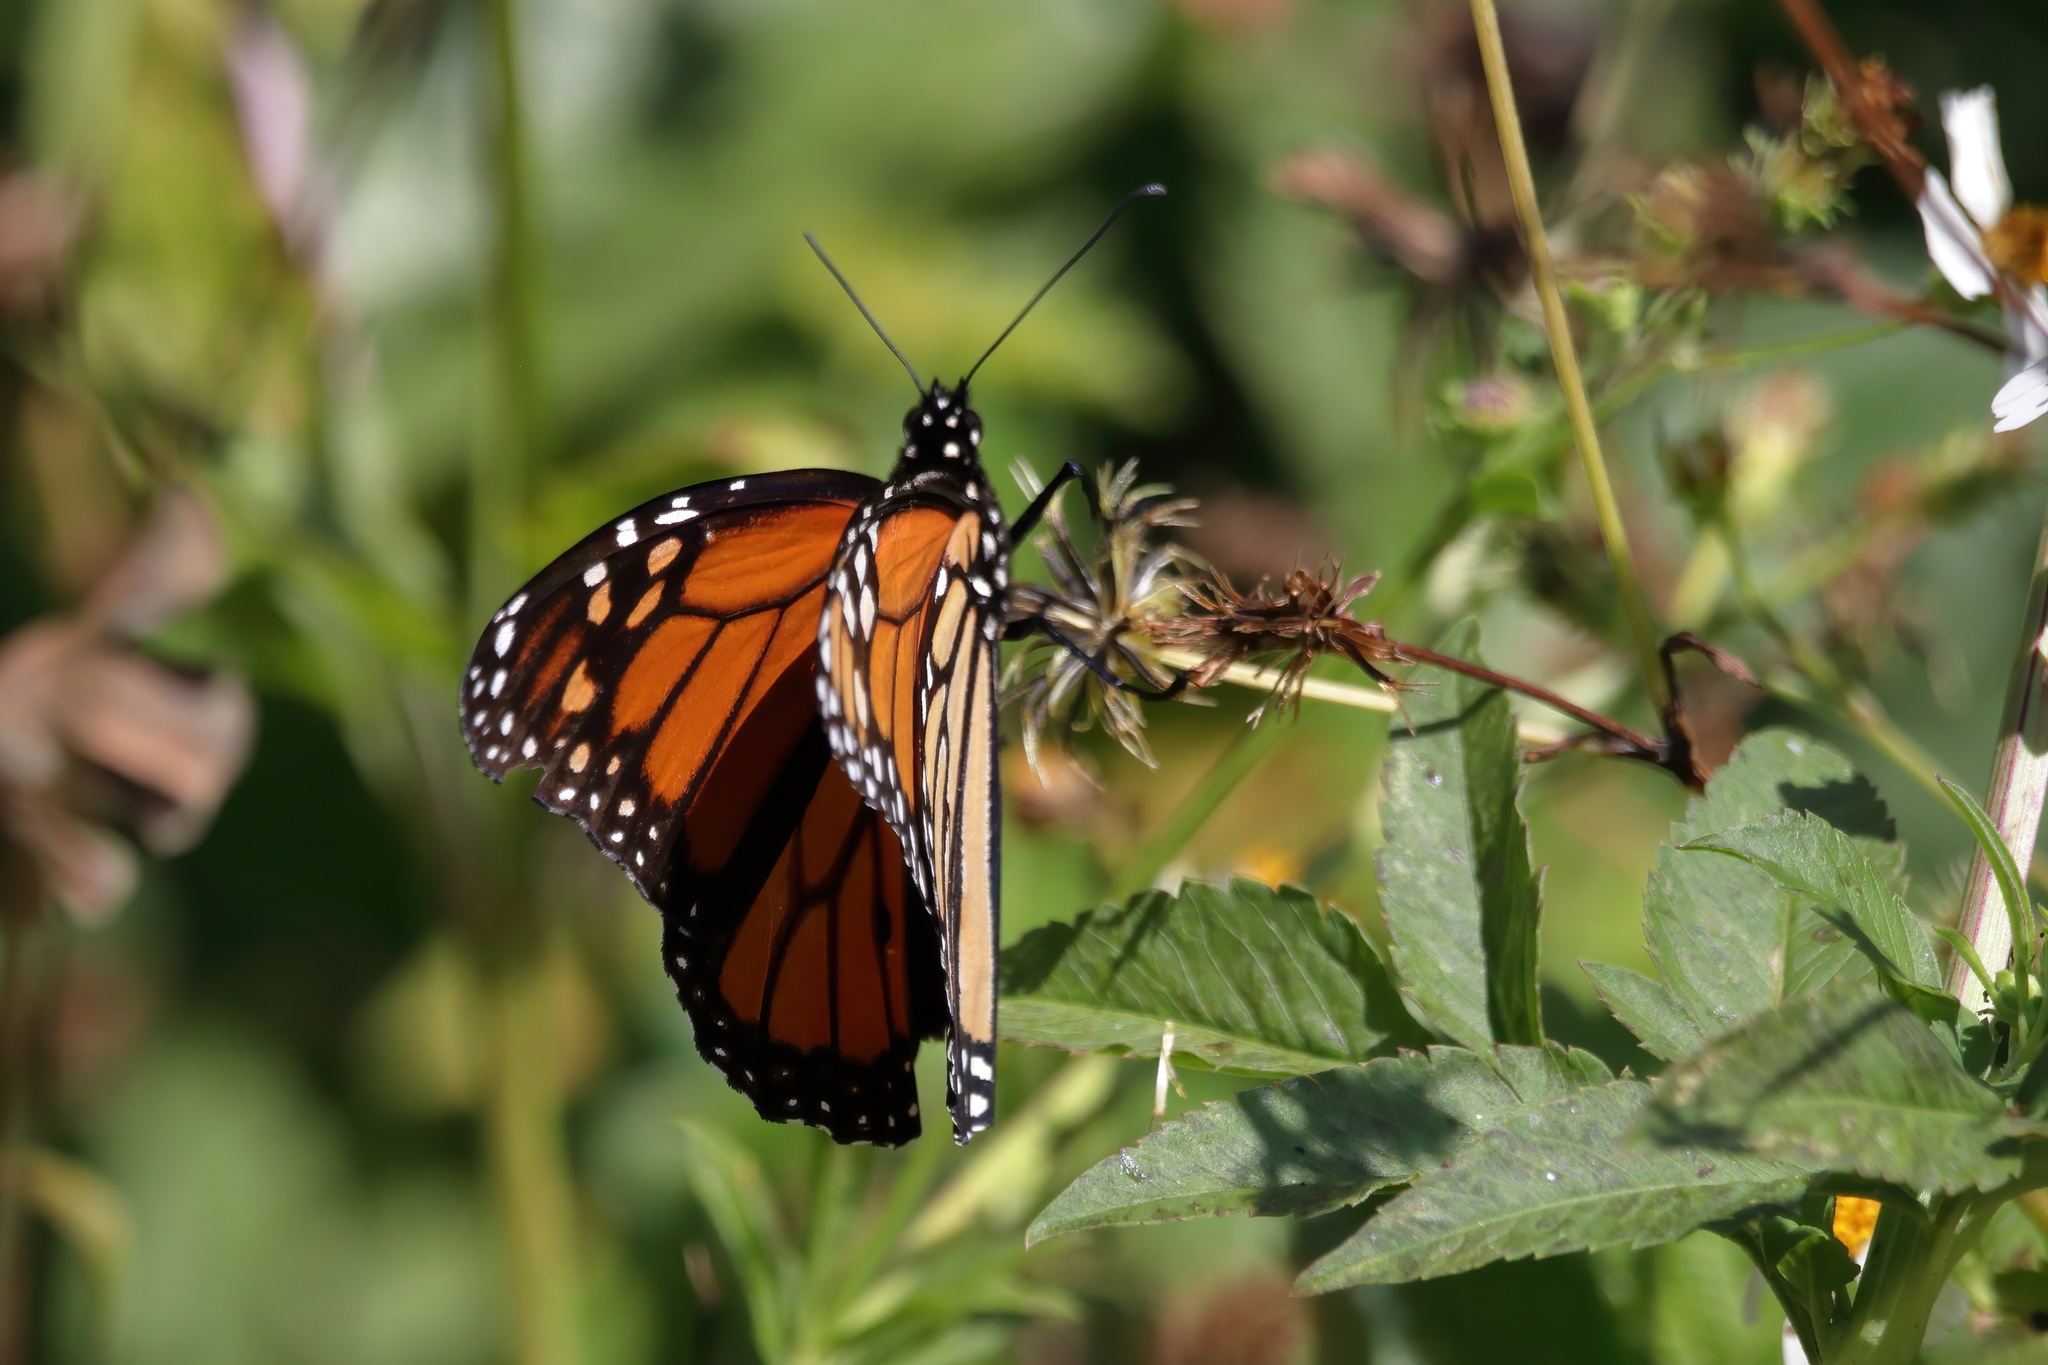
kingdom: Animalia
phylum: Arthropoda
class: Insecta
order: Lepidoptera
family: Nymphalidae
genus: Danaus
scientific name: Danaus plexippus
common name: Monarch
